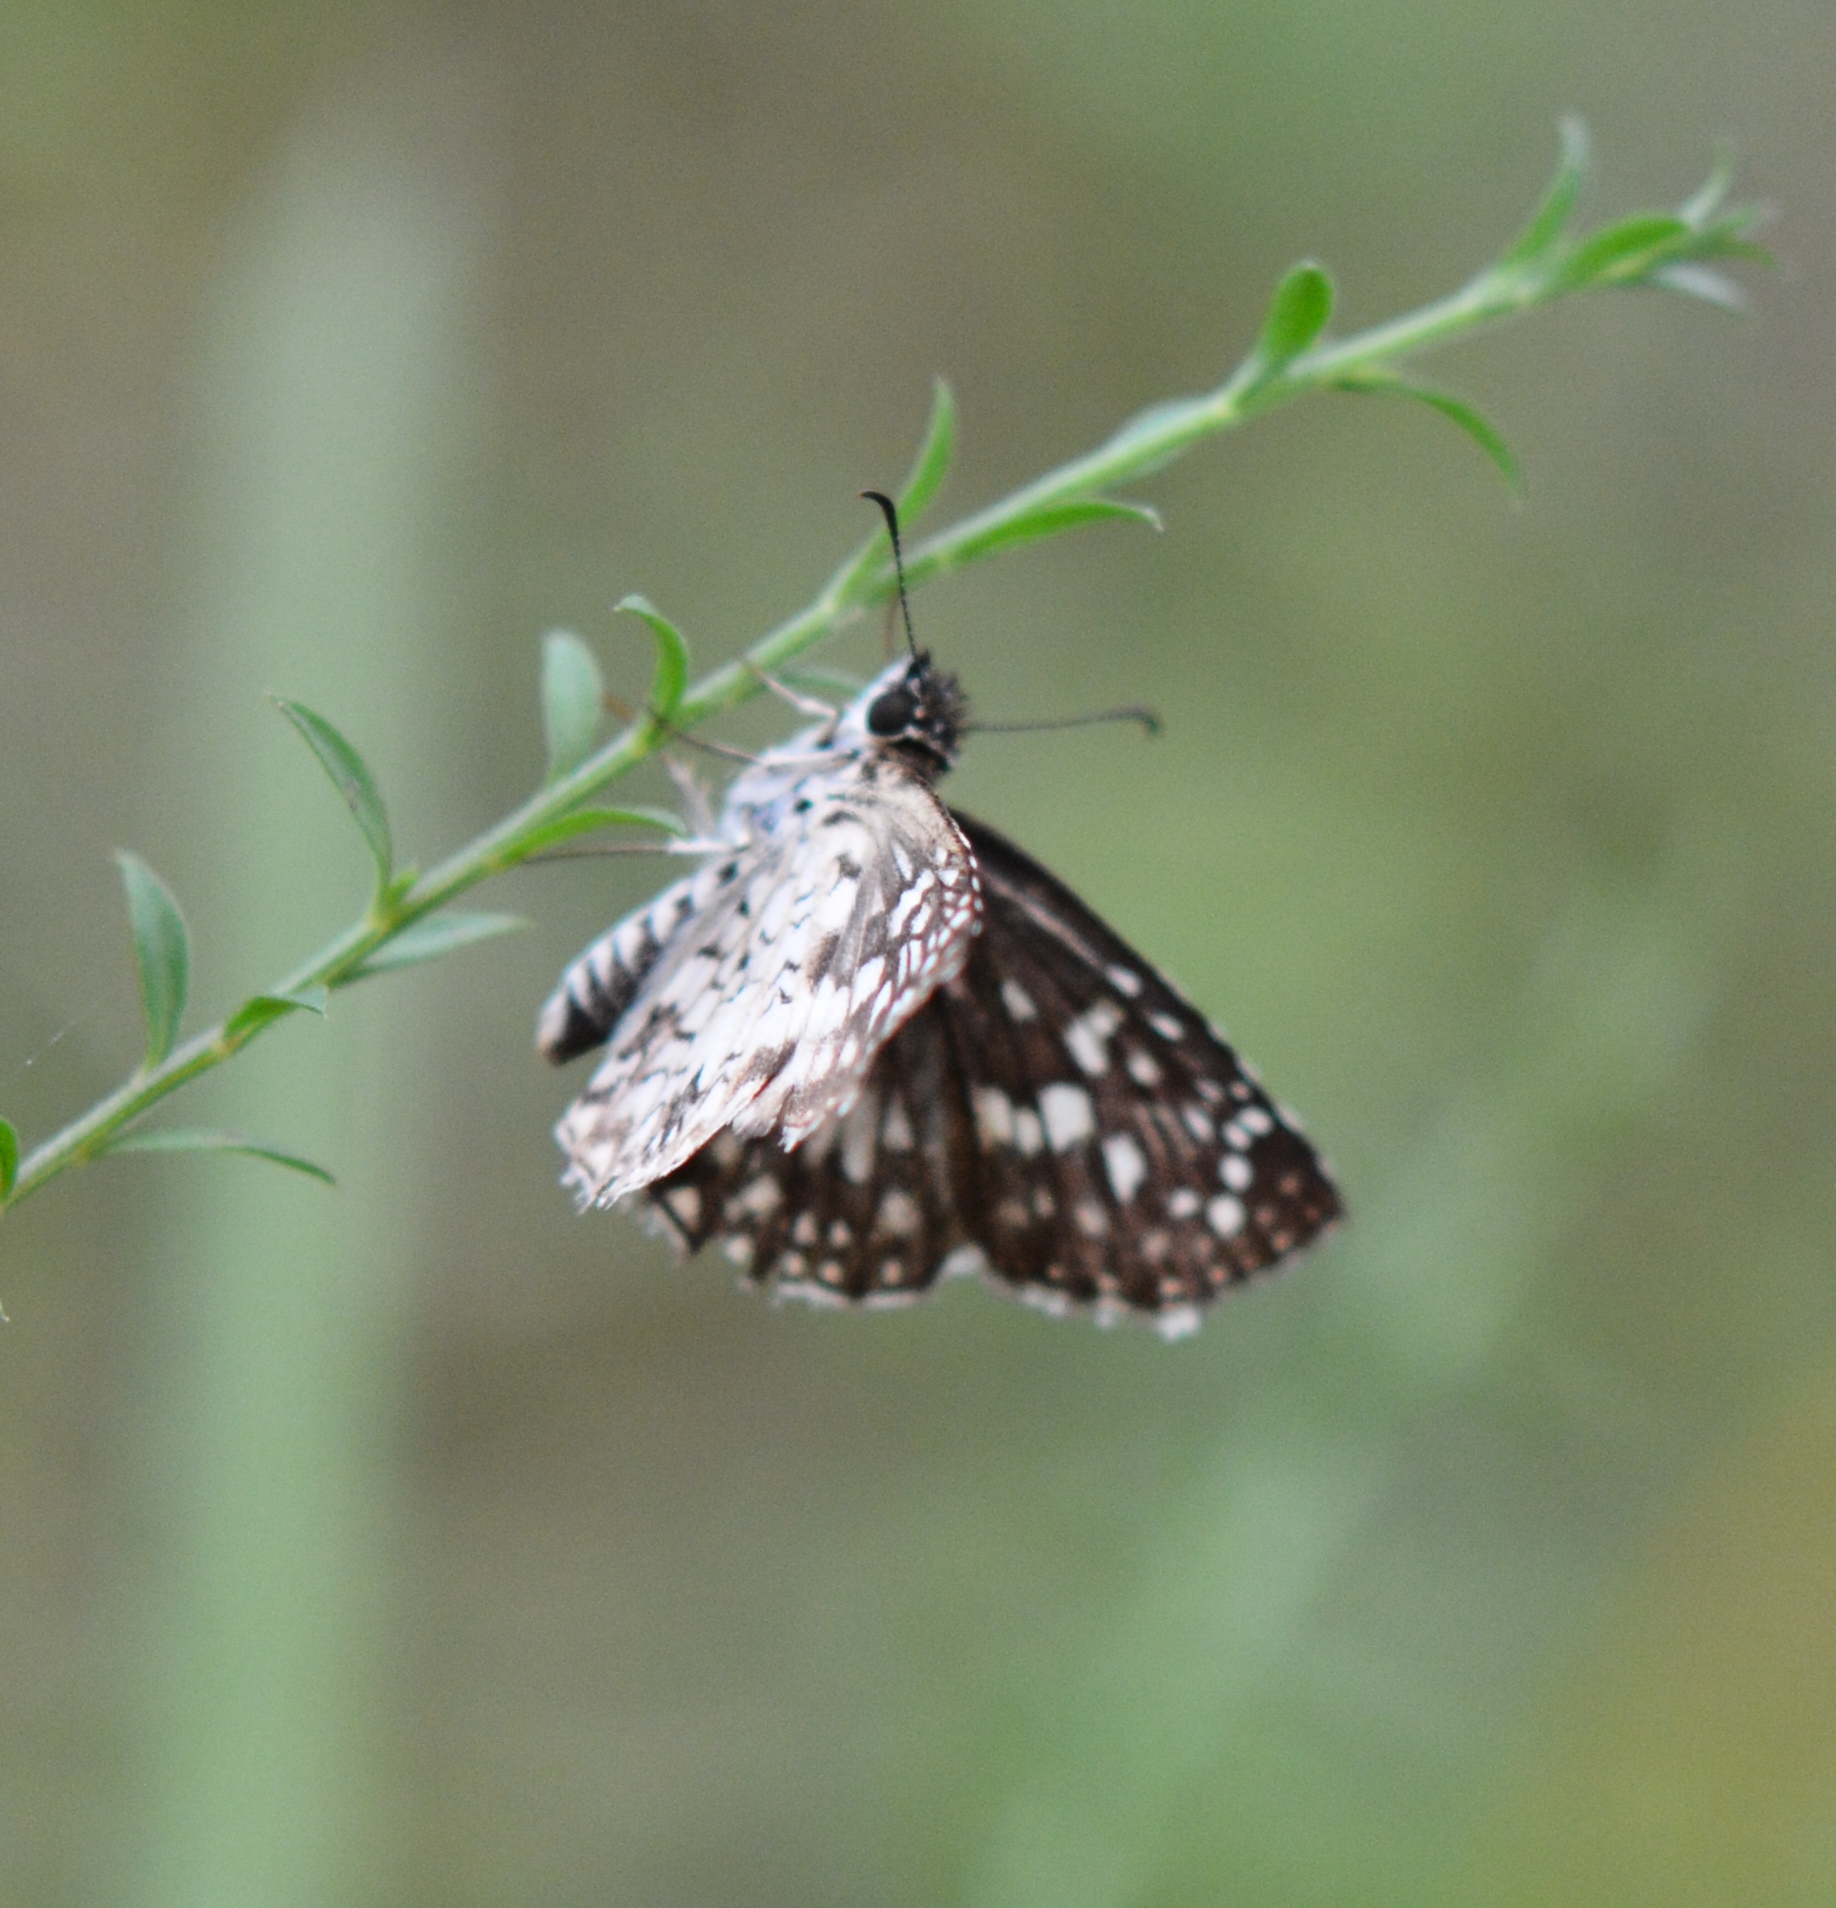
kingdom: Animalia
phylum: Arthropoda
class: Insecta
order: Lepidoptera
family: Hesperiidae
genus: Pyrgus
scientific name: Pyrgus oileus
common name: Tropical checkered-skipper
